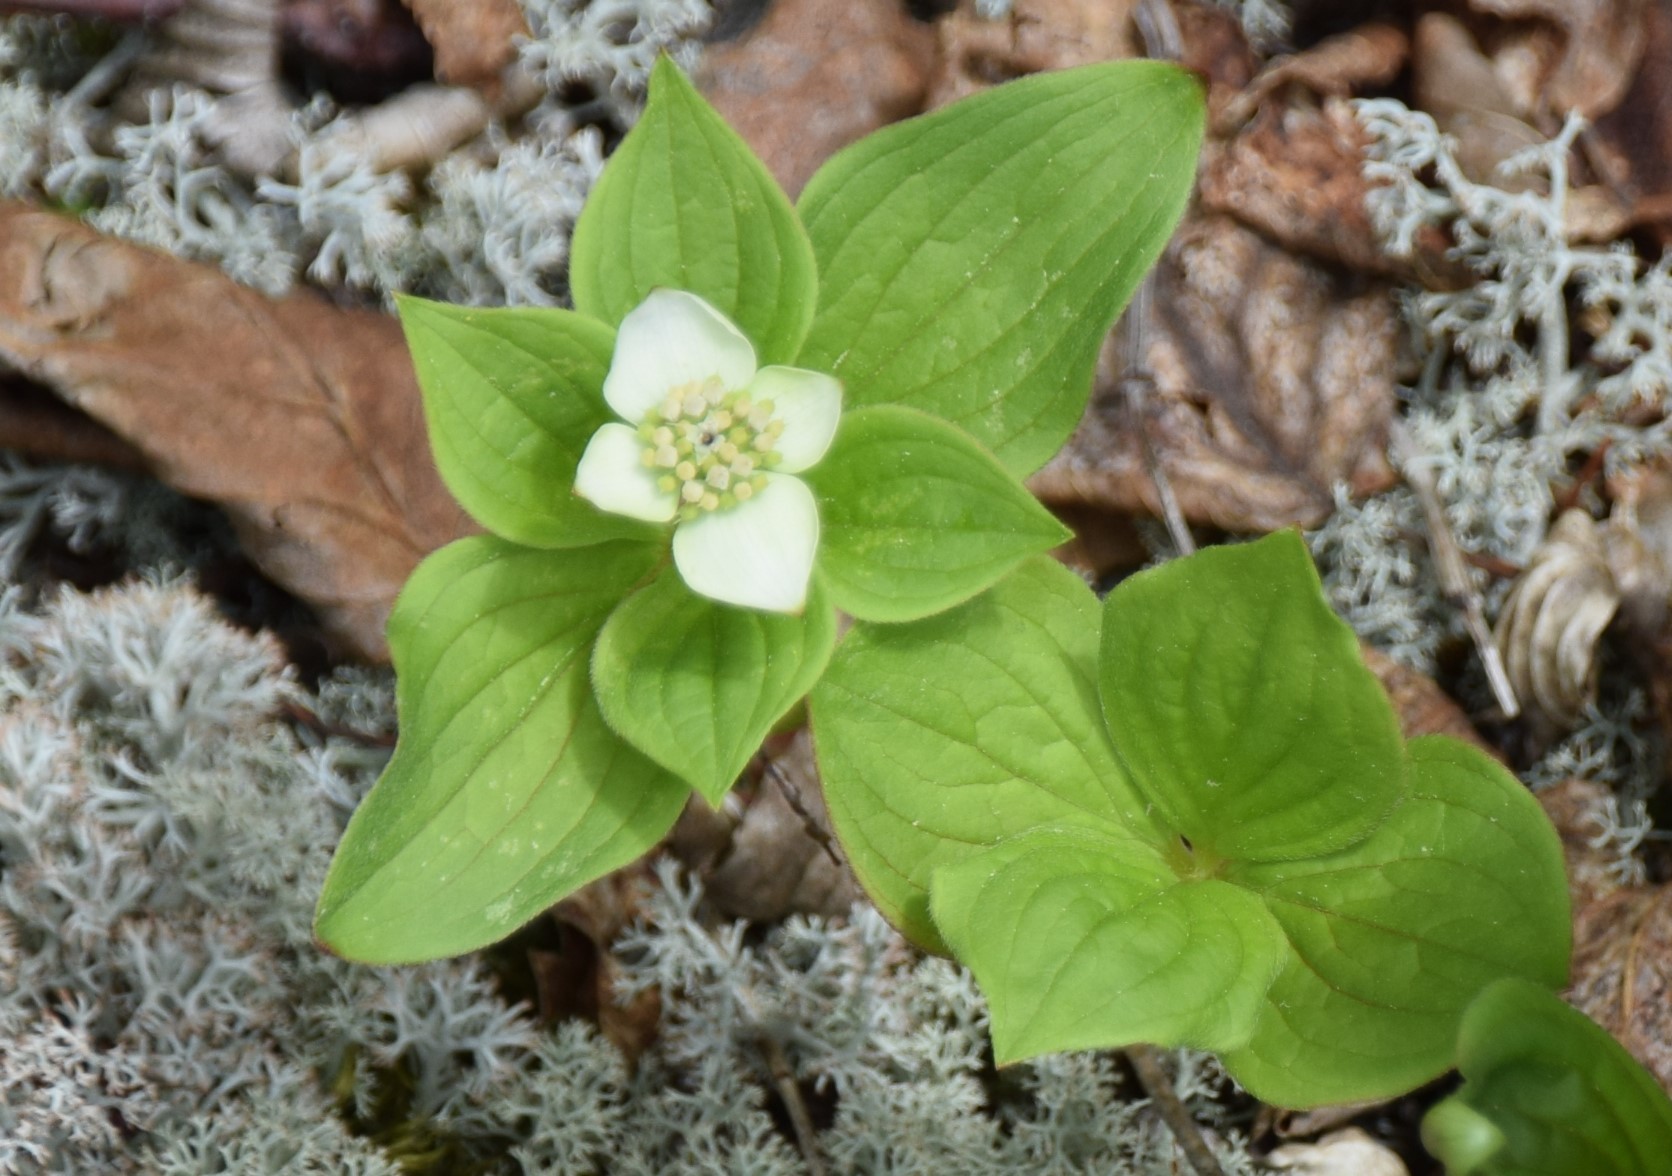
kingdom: Plantae
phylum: Tracheophyta
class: Magnoliopsida
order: Cornales
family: Cornaceae
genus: Cornus
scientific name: Cornus canadensis
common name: Creeping dogwood
